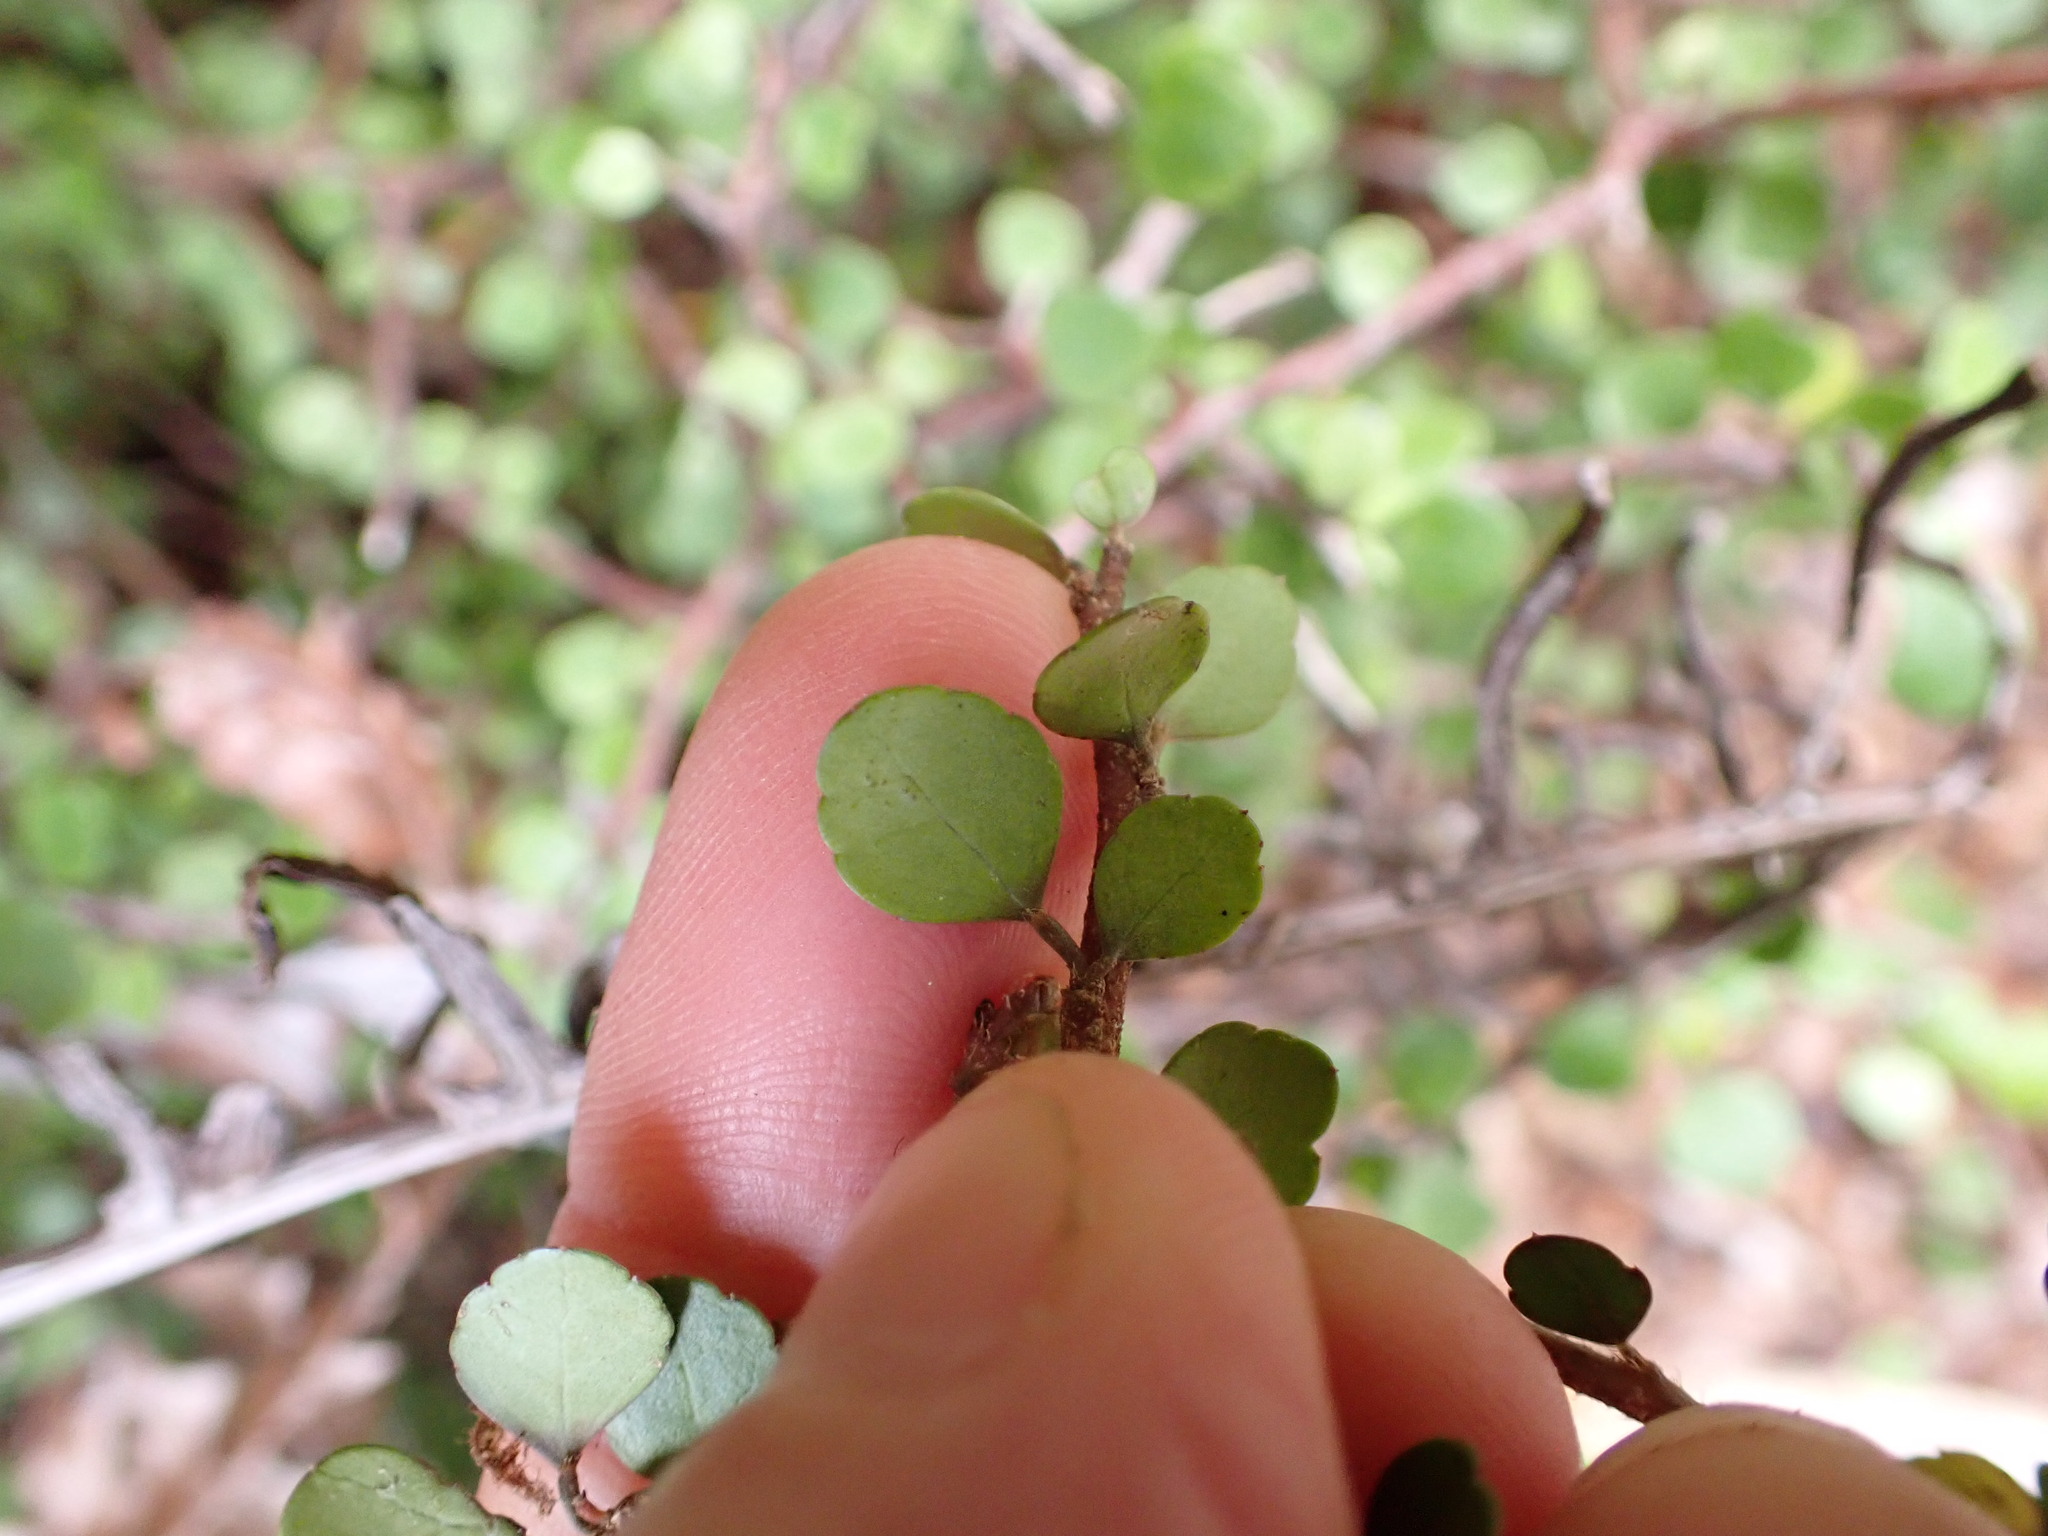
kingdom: Plantae
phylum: Tracheophyta
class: Magnoliopsida
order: Apiales
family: Araliaceae
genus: Raukaua
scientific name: Raukaua anomalus
